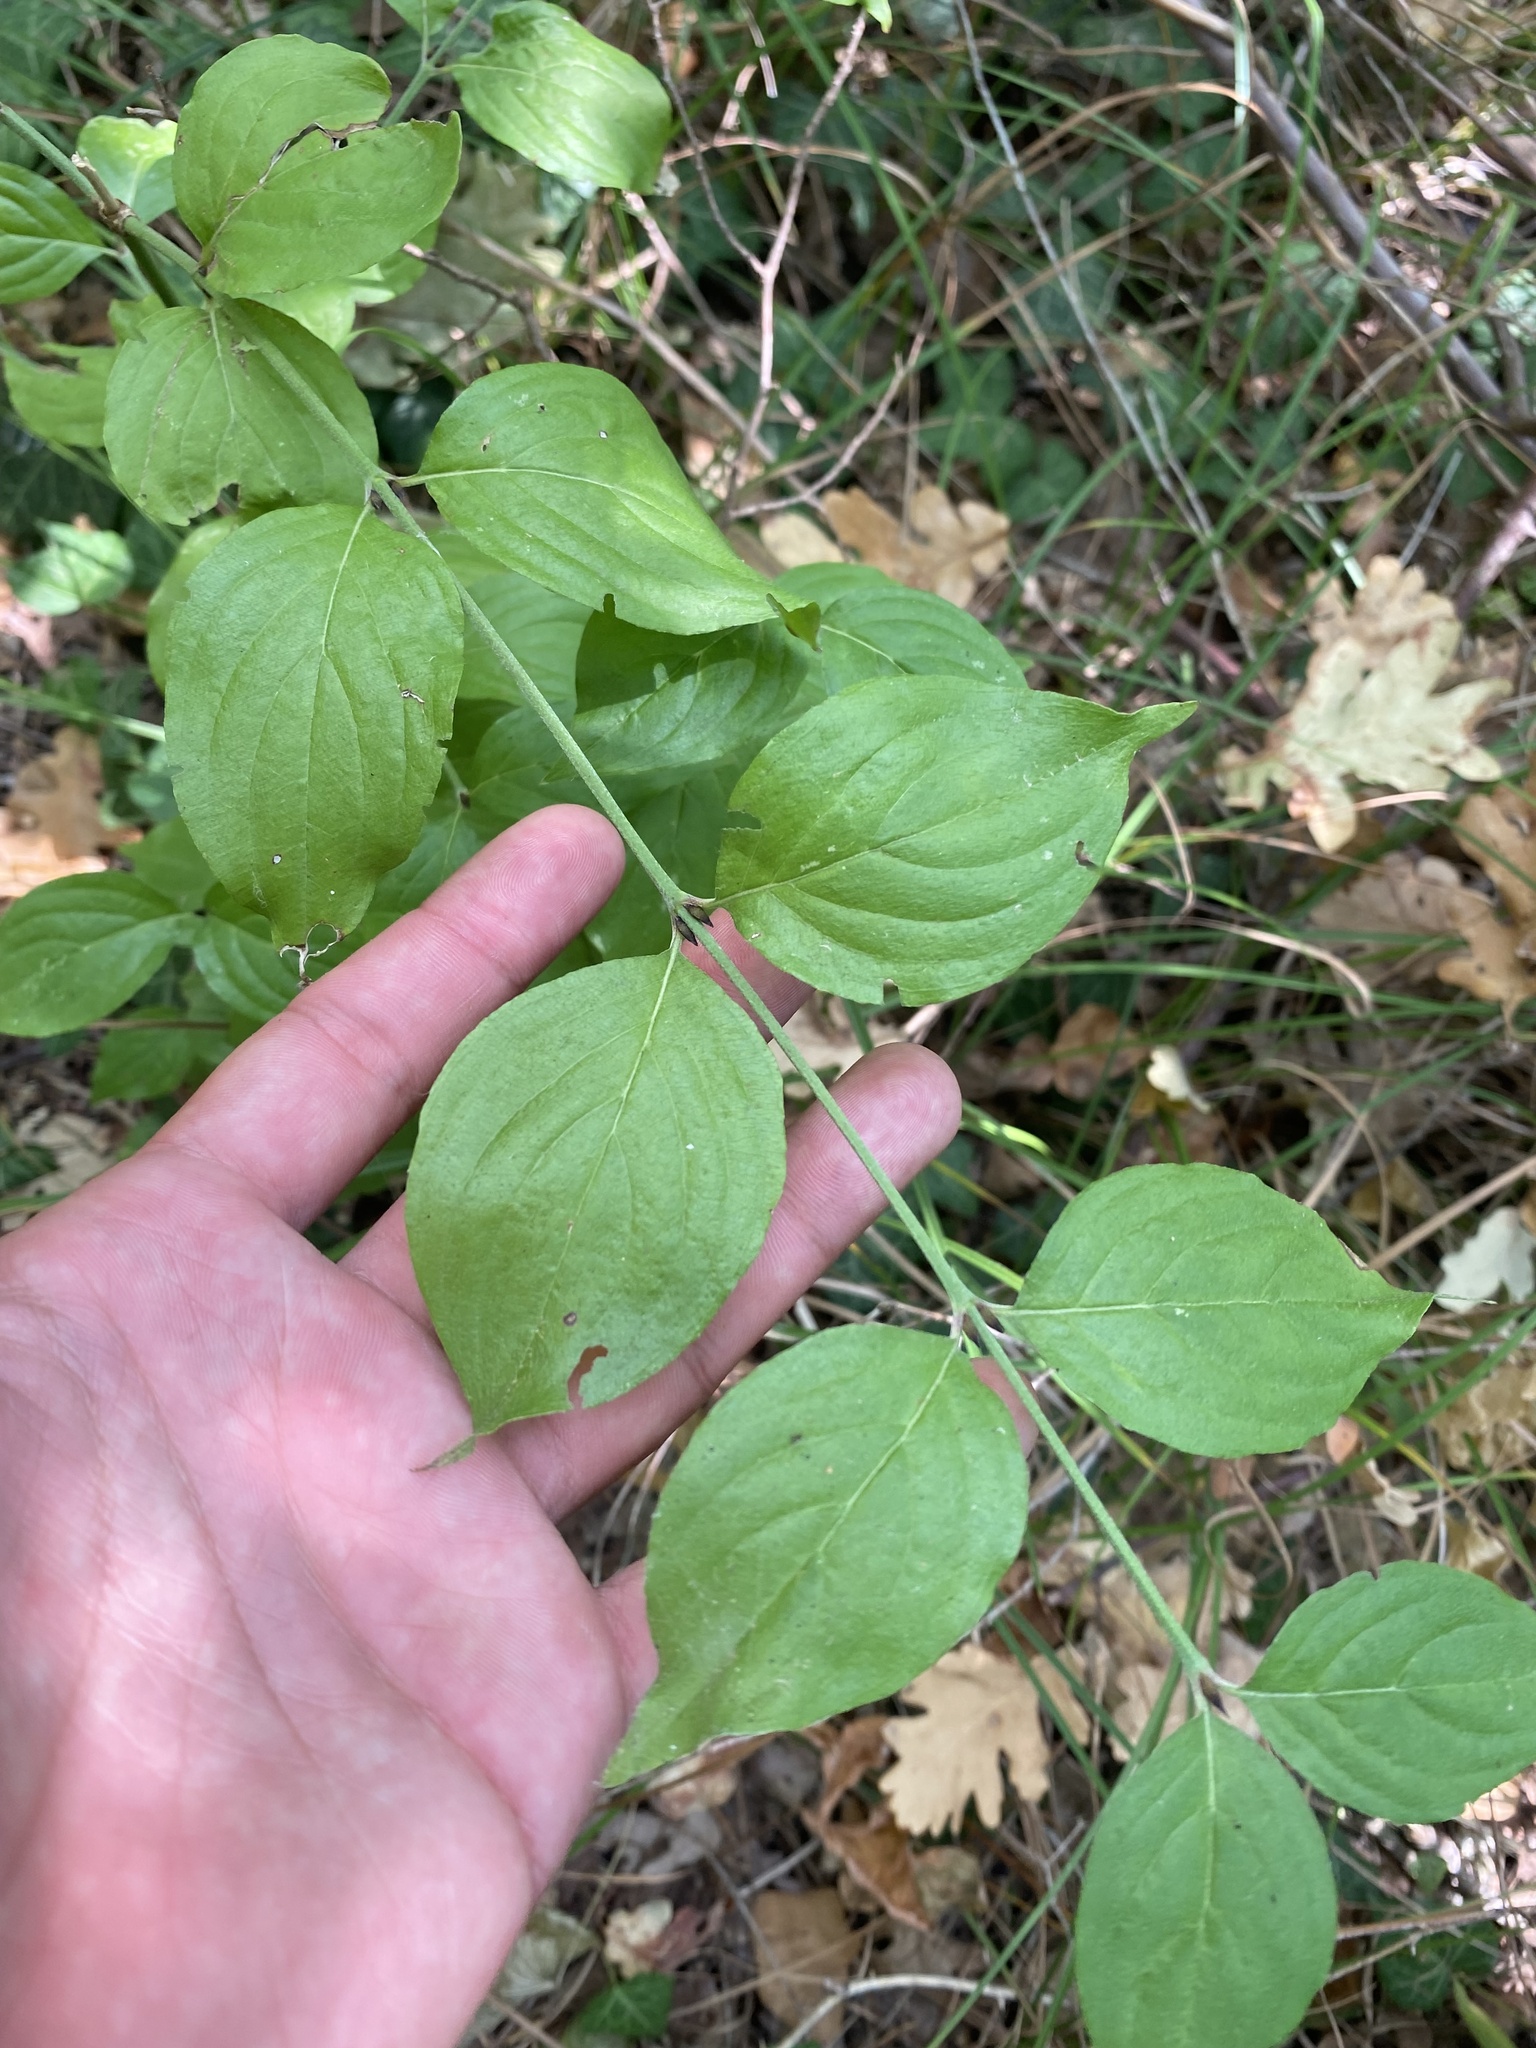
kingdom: Plantae
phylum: Tracheophyta
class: Magnoliopsida
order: Cornales
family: Cornaceae
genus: Cornus
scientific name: Cornus mas
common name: Cornelian-cherry
